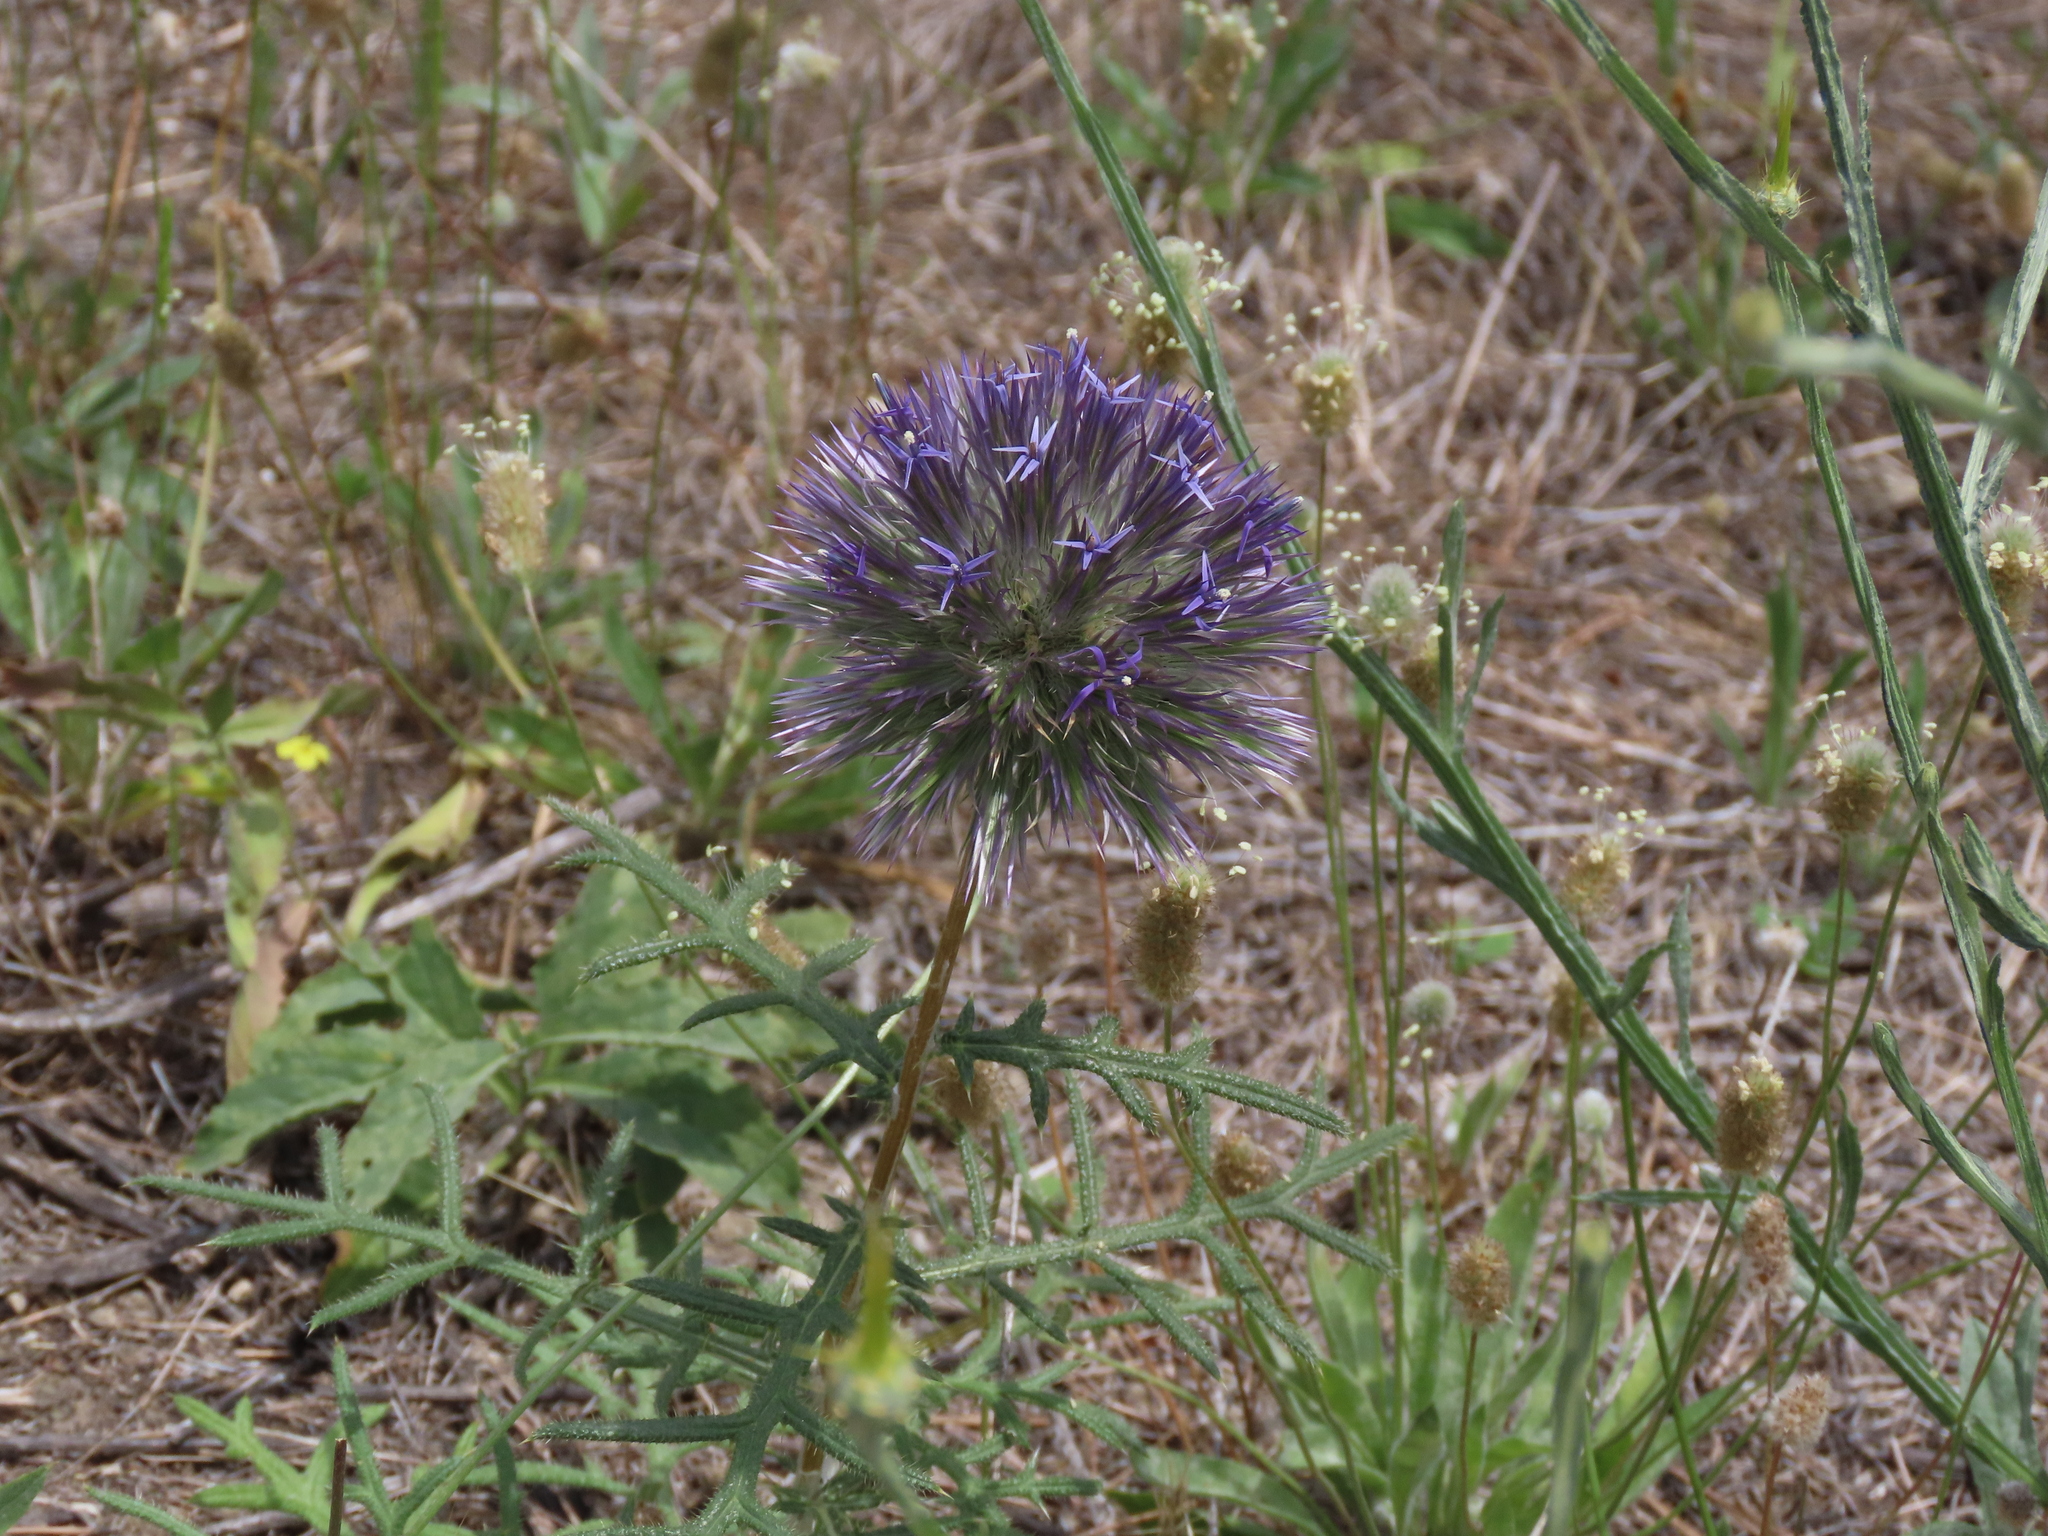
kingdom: Plantae
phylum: Tracheophyta
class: Magnoliopsida
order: Asterales
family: Asteraceae
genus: Echinops
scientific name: Echinops strigosus
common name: Rough-leaf globe thistle
